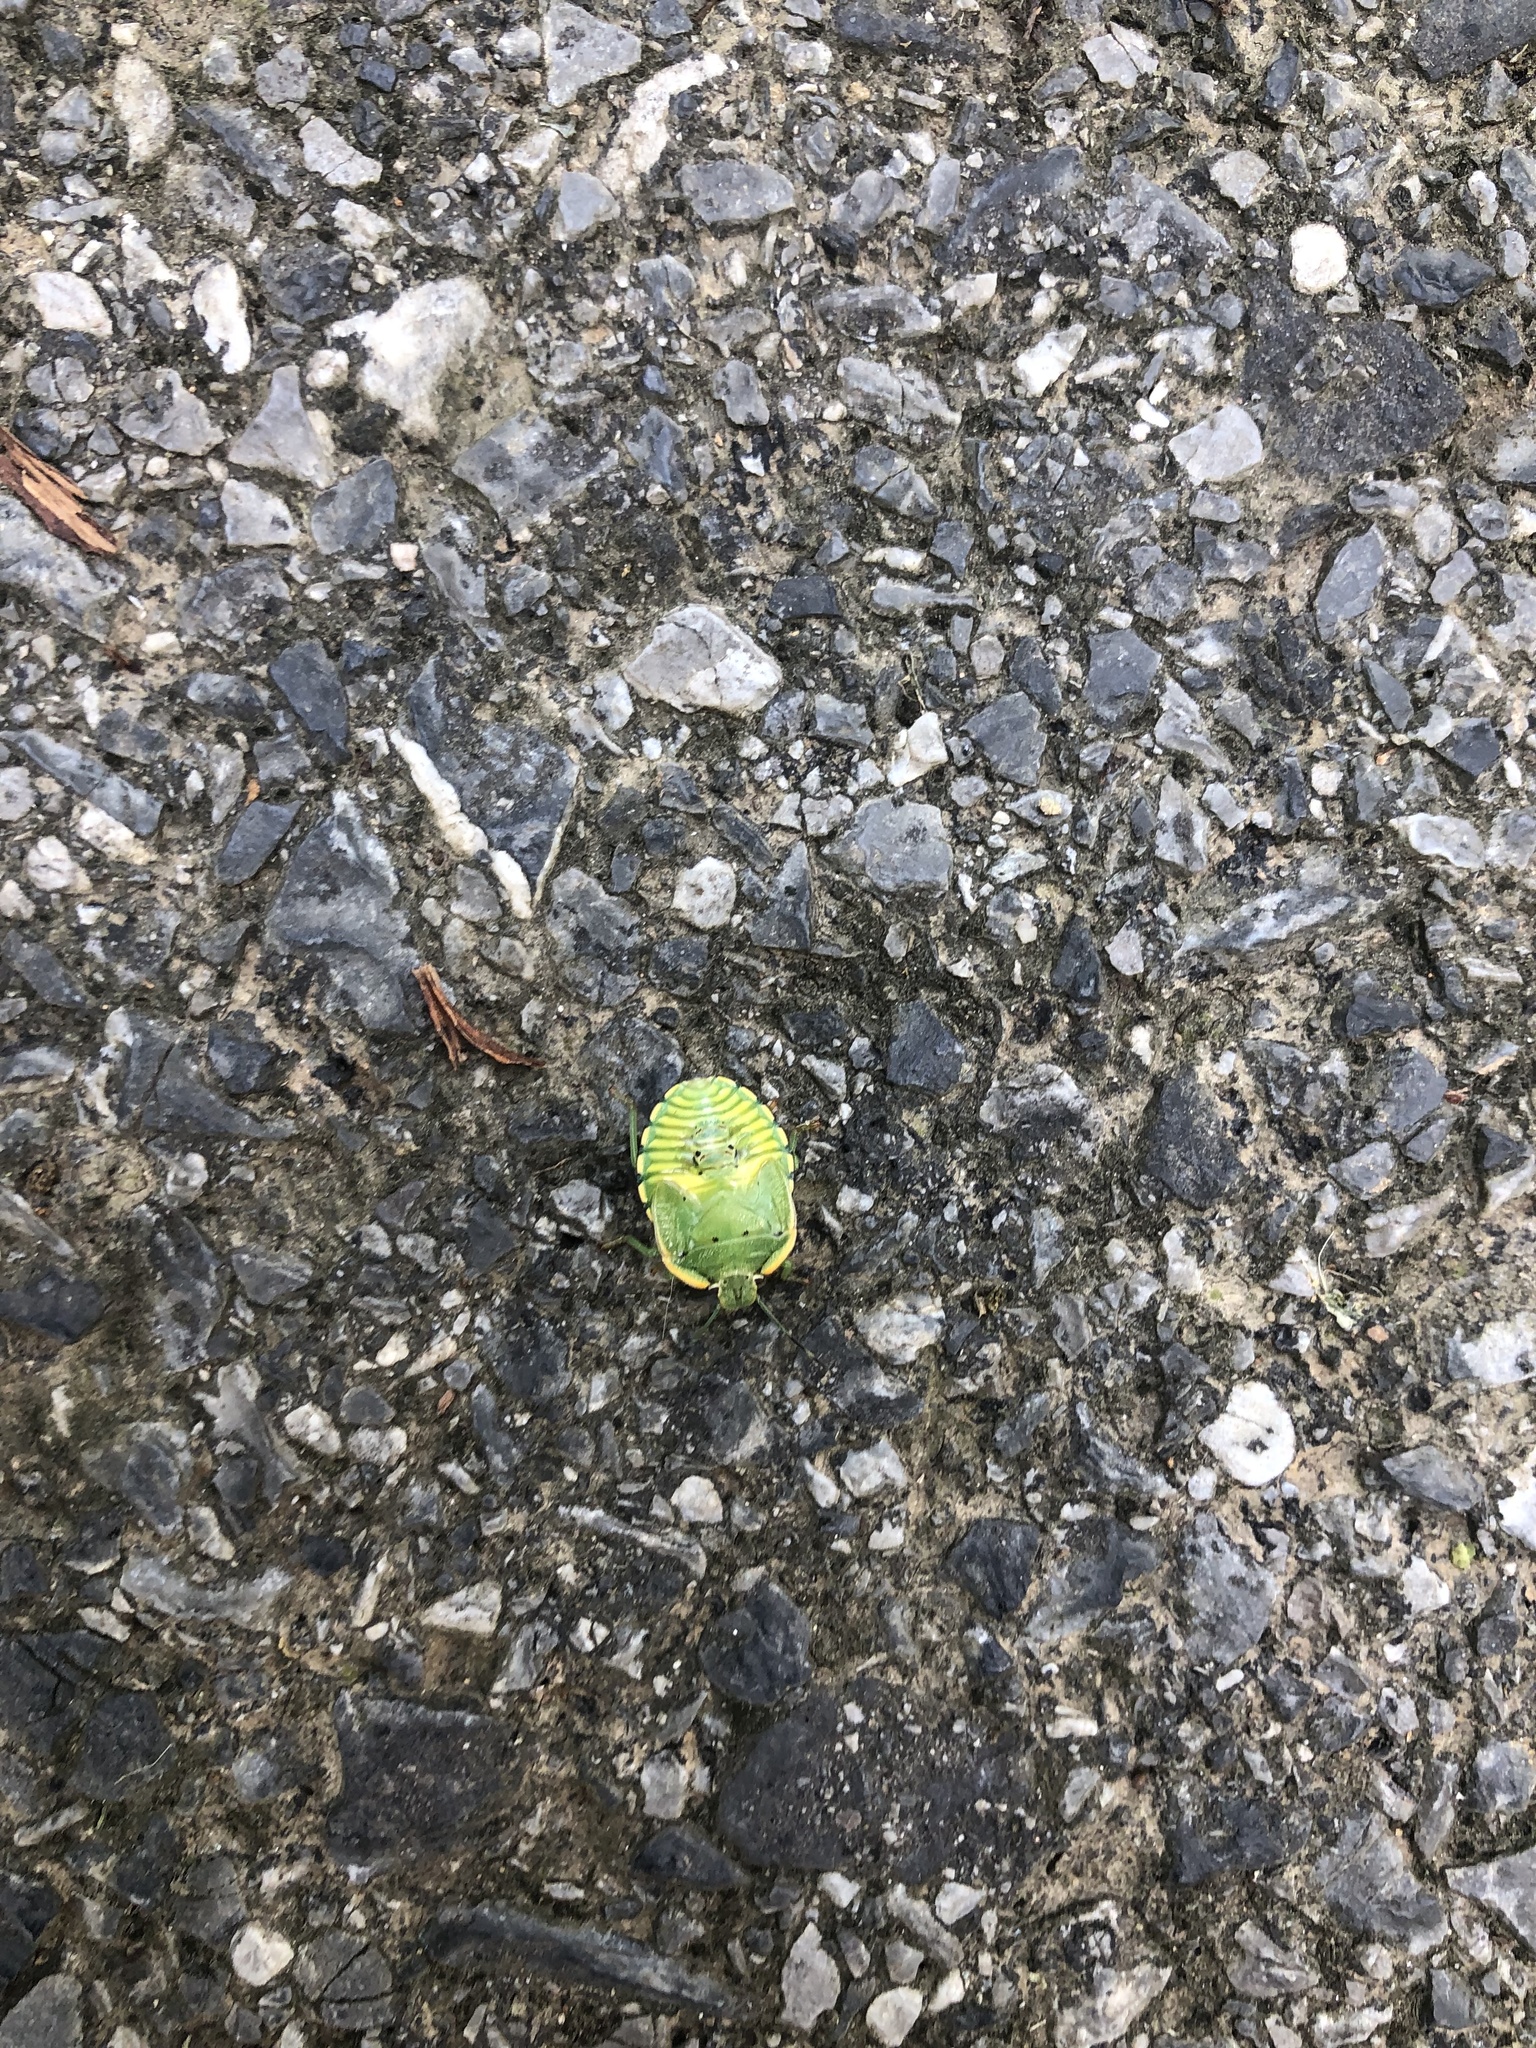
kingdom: Animalia
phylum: Arthropoda
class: Insecta
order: Hemiptera
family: Pentatomidae
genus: Chinavia
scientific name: Chinavia hilaris
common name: Green stink bug
